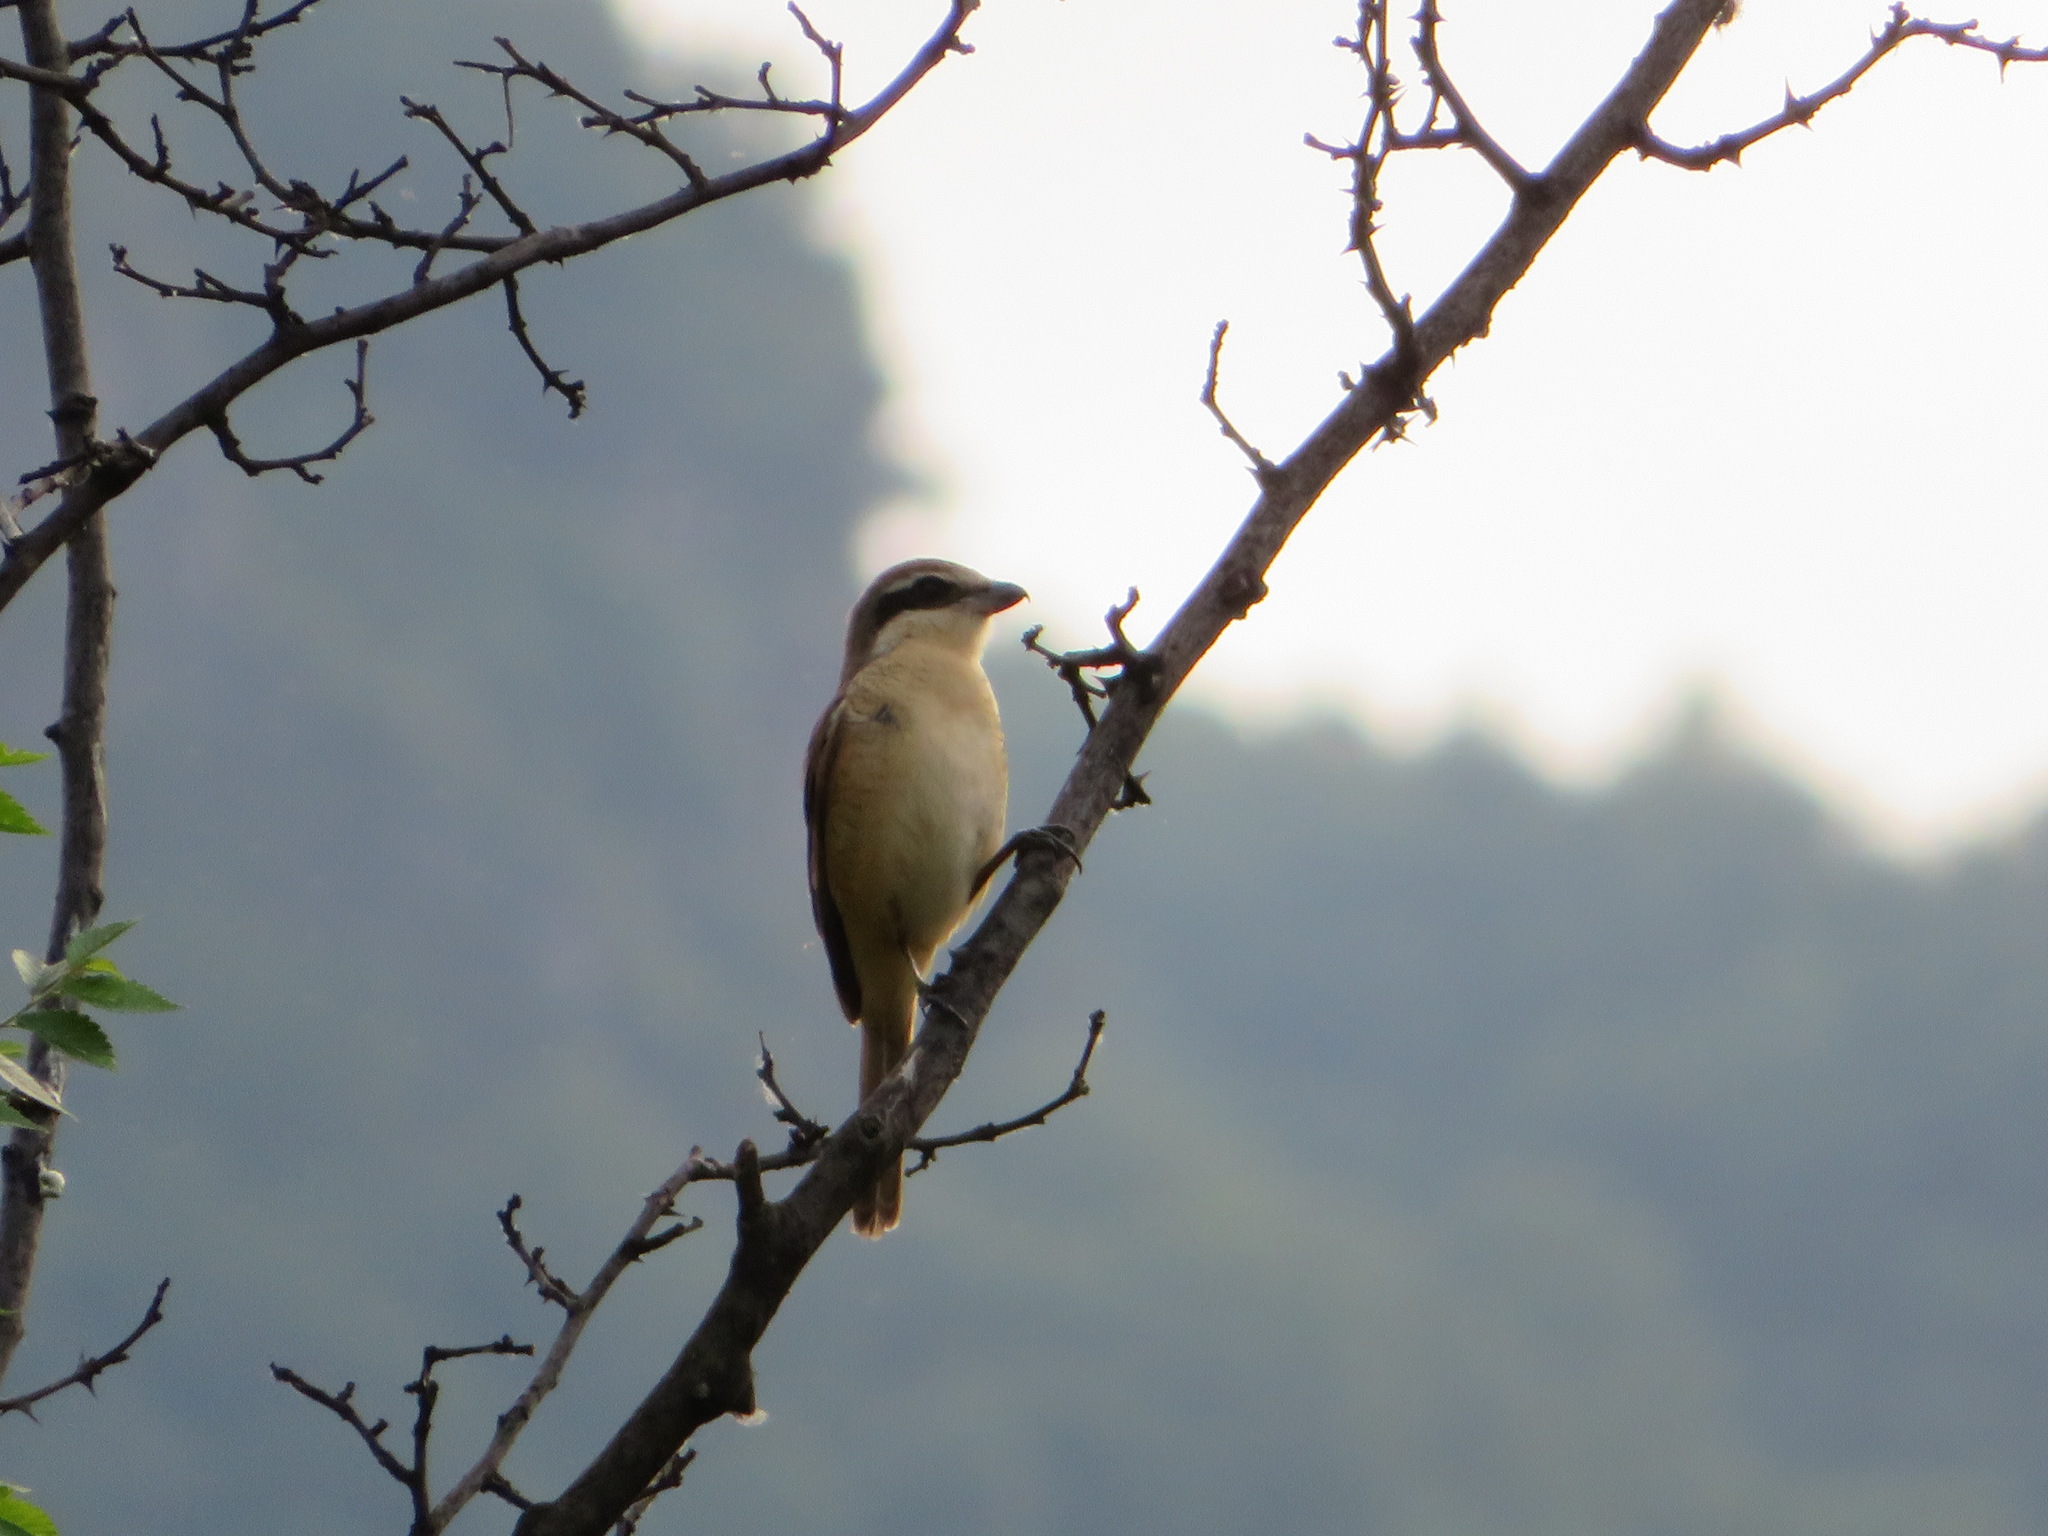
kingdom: Animalia
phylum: Chordata
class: Aves
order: Passeriformes
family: Laniidae
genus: Lanius
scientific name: Lanius cristatus
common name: Brown shrike
